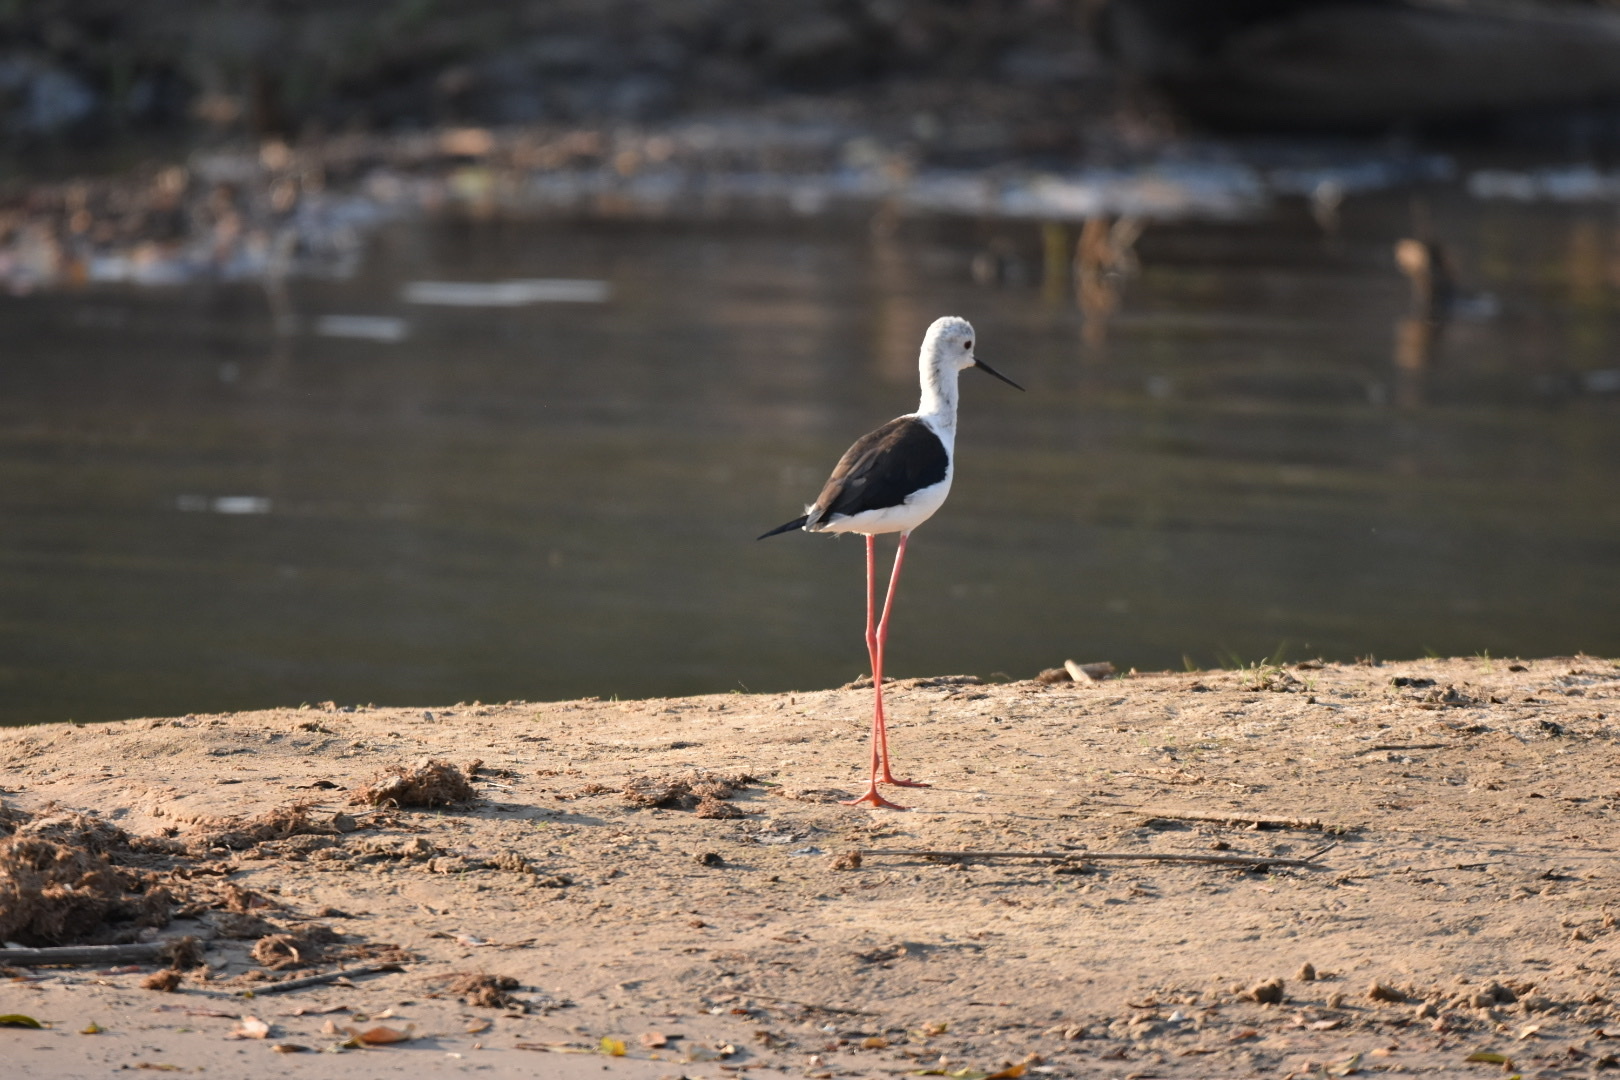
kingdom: Animalia
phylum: Chordata
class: Aves
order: Charadriiformes
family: Recurvirostridae
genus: Himantopus
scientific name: Himantopus himantopus
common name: Black-winged stilt
